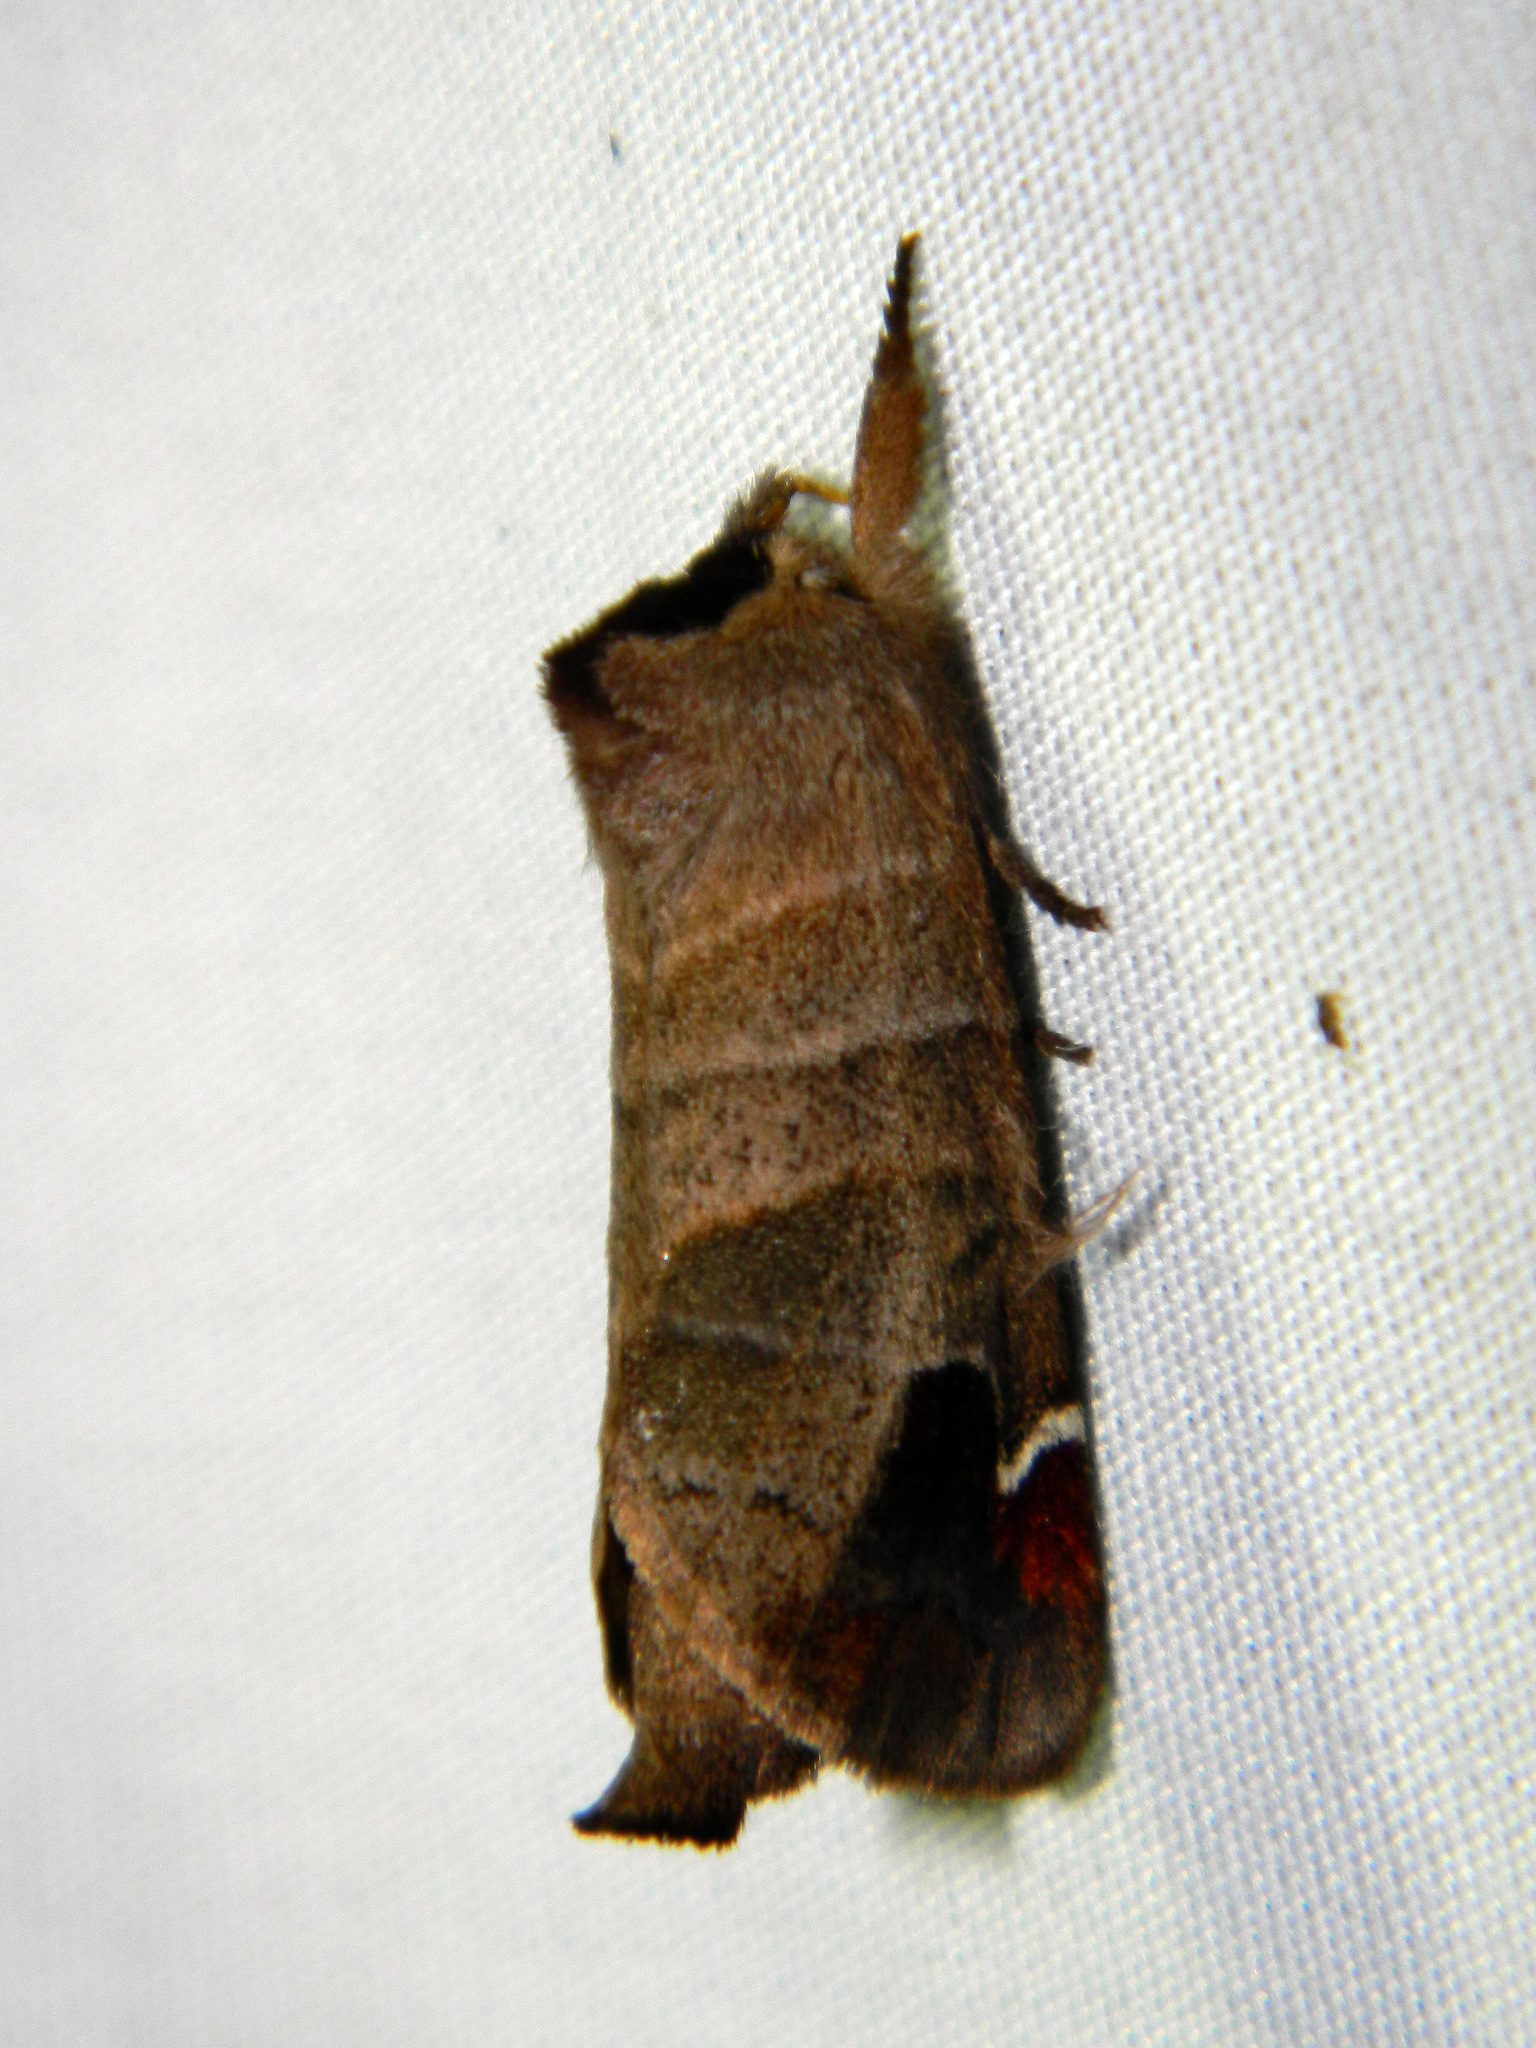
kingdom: Animalia
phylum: Arthropoda
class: Insecta
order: Lepidoptera
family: Notodontidae
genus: Clostera
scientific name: Clostera albosigma
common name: Sigmoid prominent
